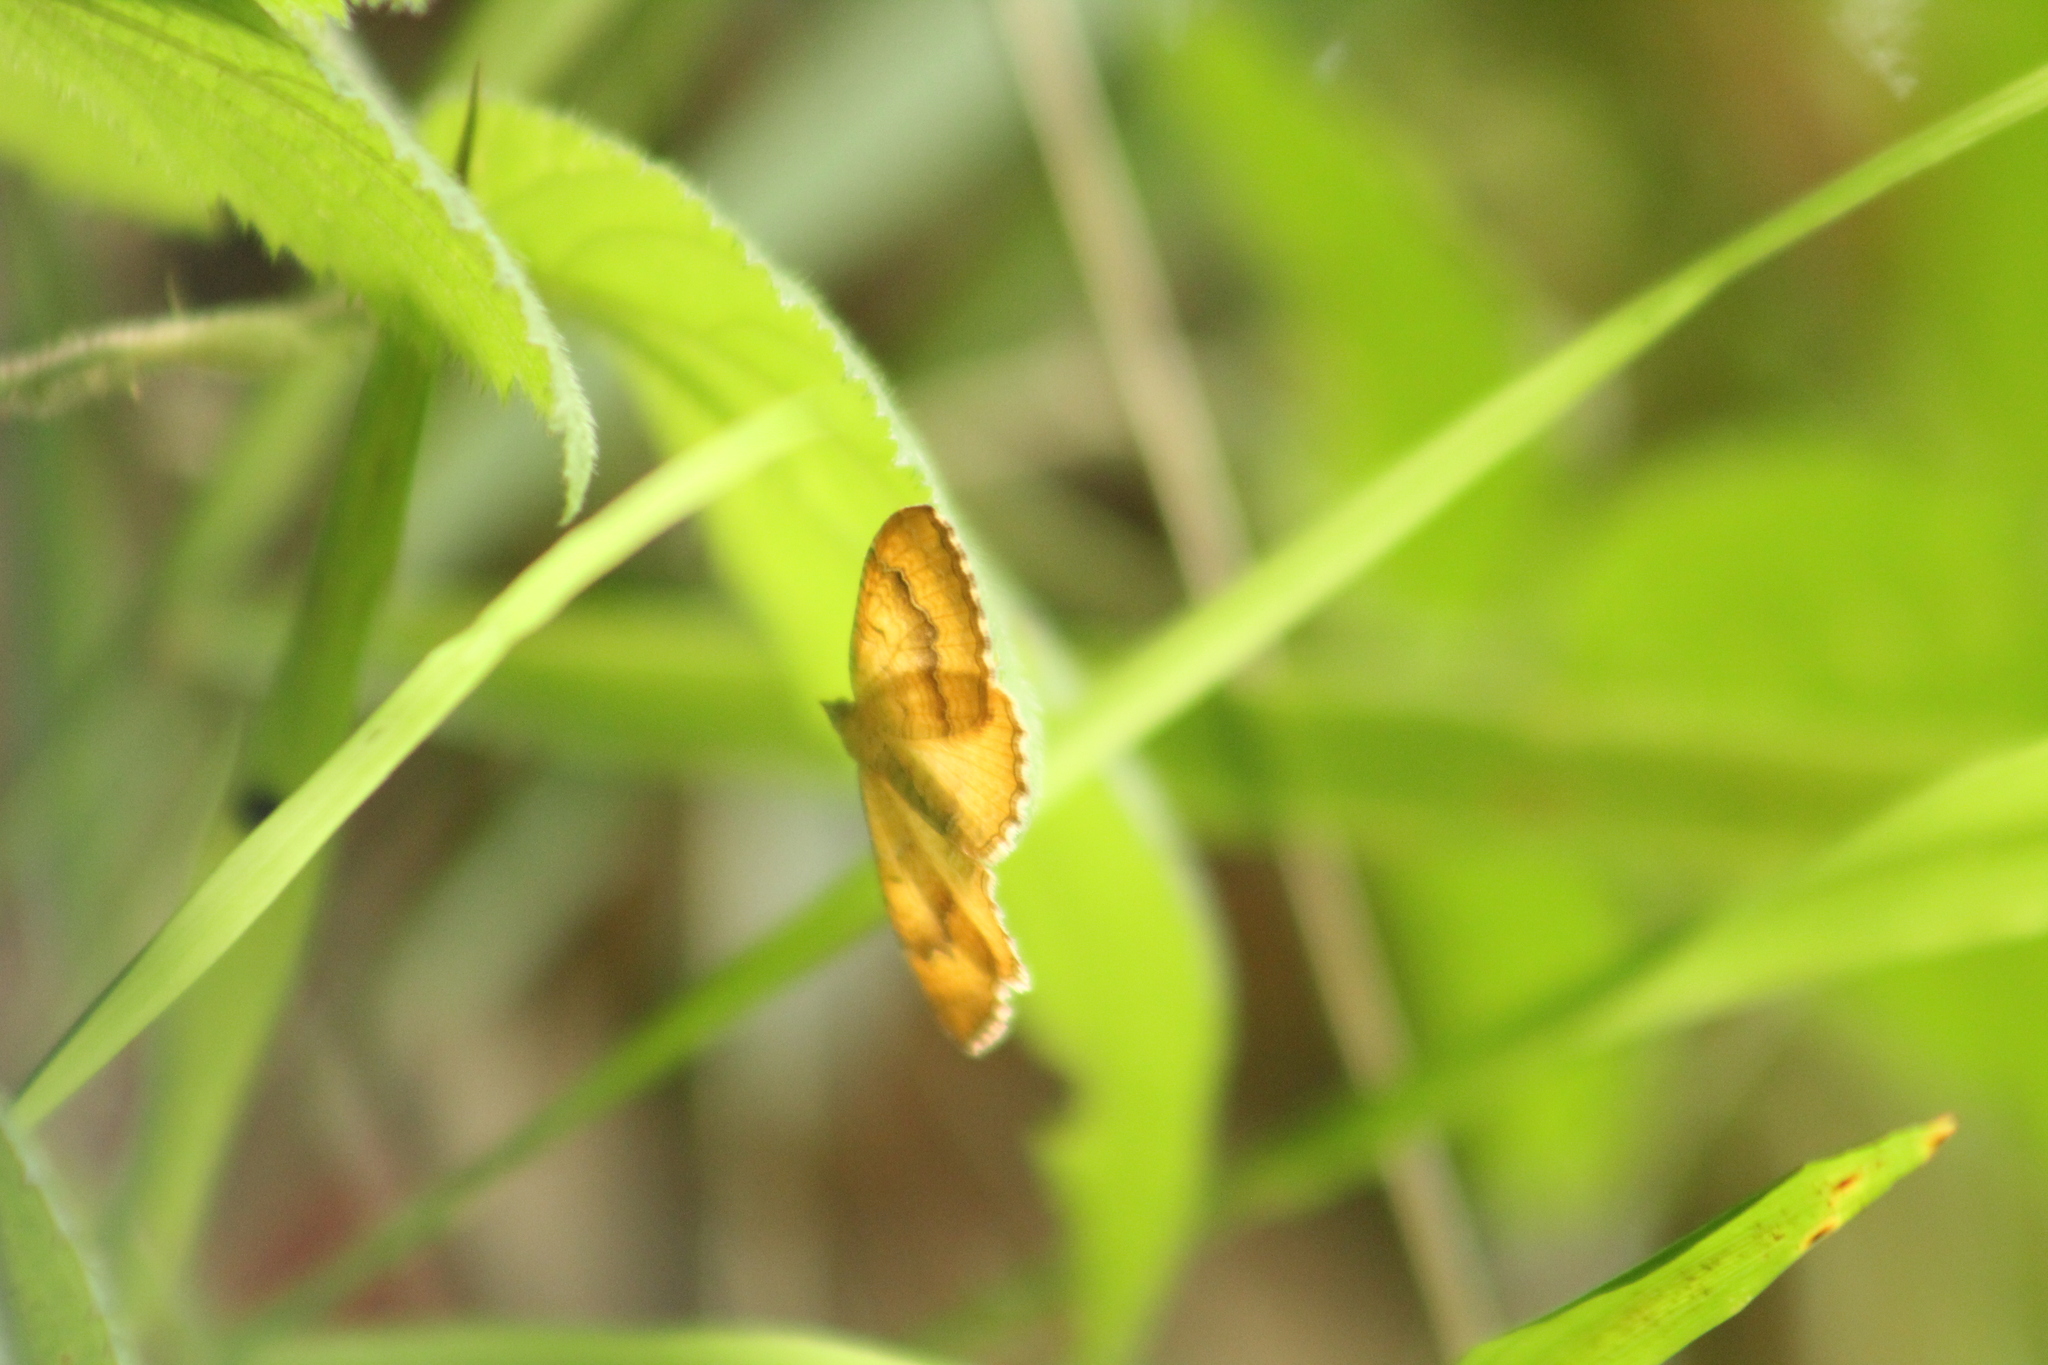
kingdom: Animalia
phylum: Arthropoda
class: Insecta
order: Lepidoptera
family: Geometridae
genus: Camptogramma
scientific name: Camptogramma bilineata
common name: Yellow shell
